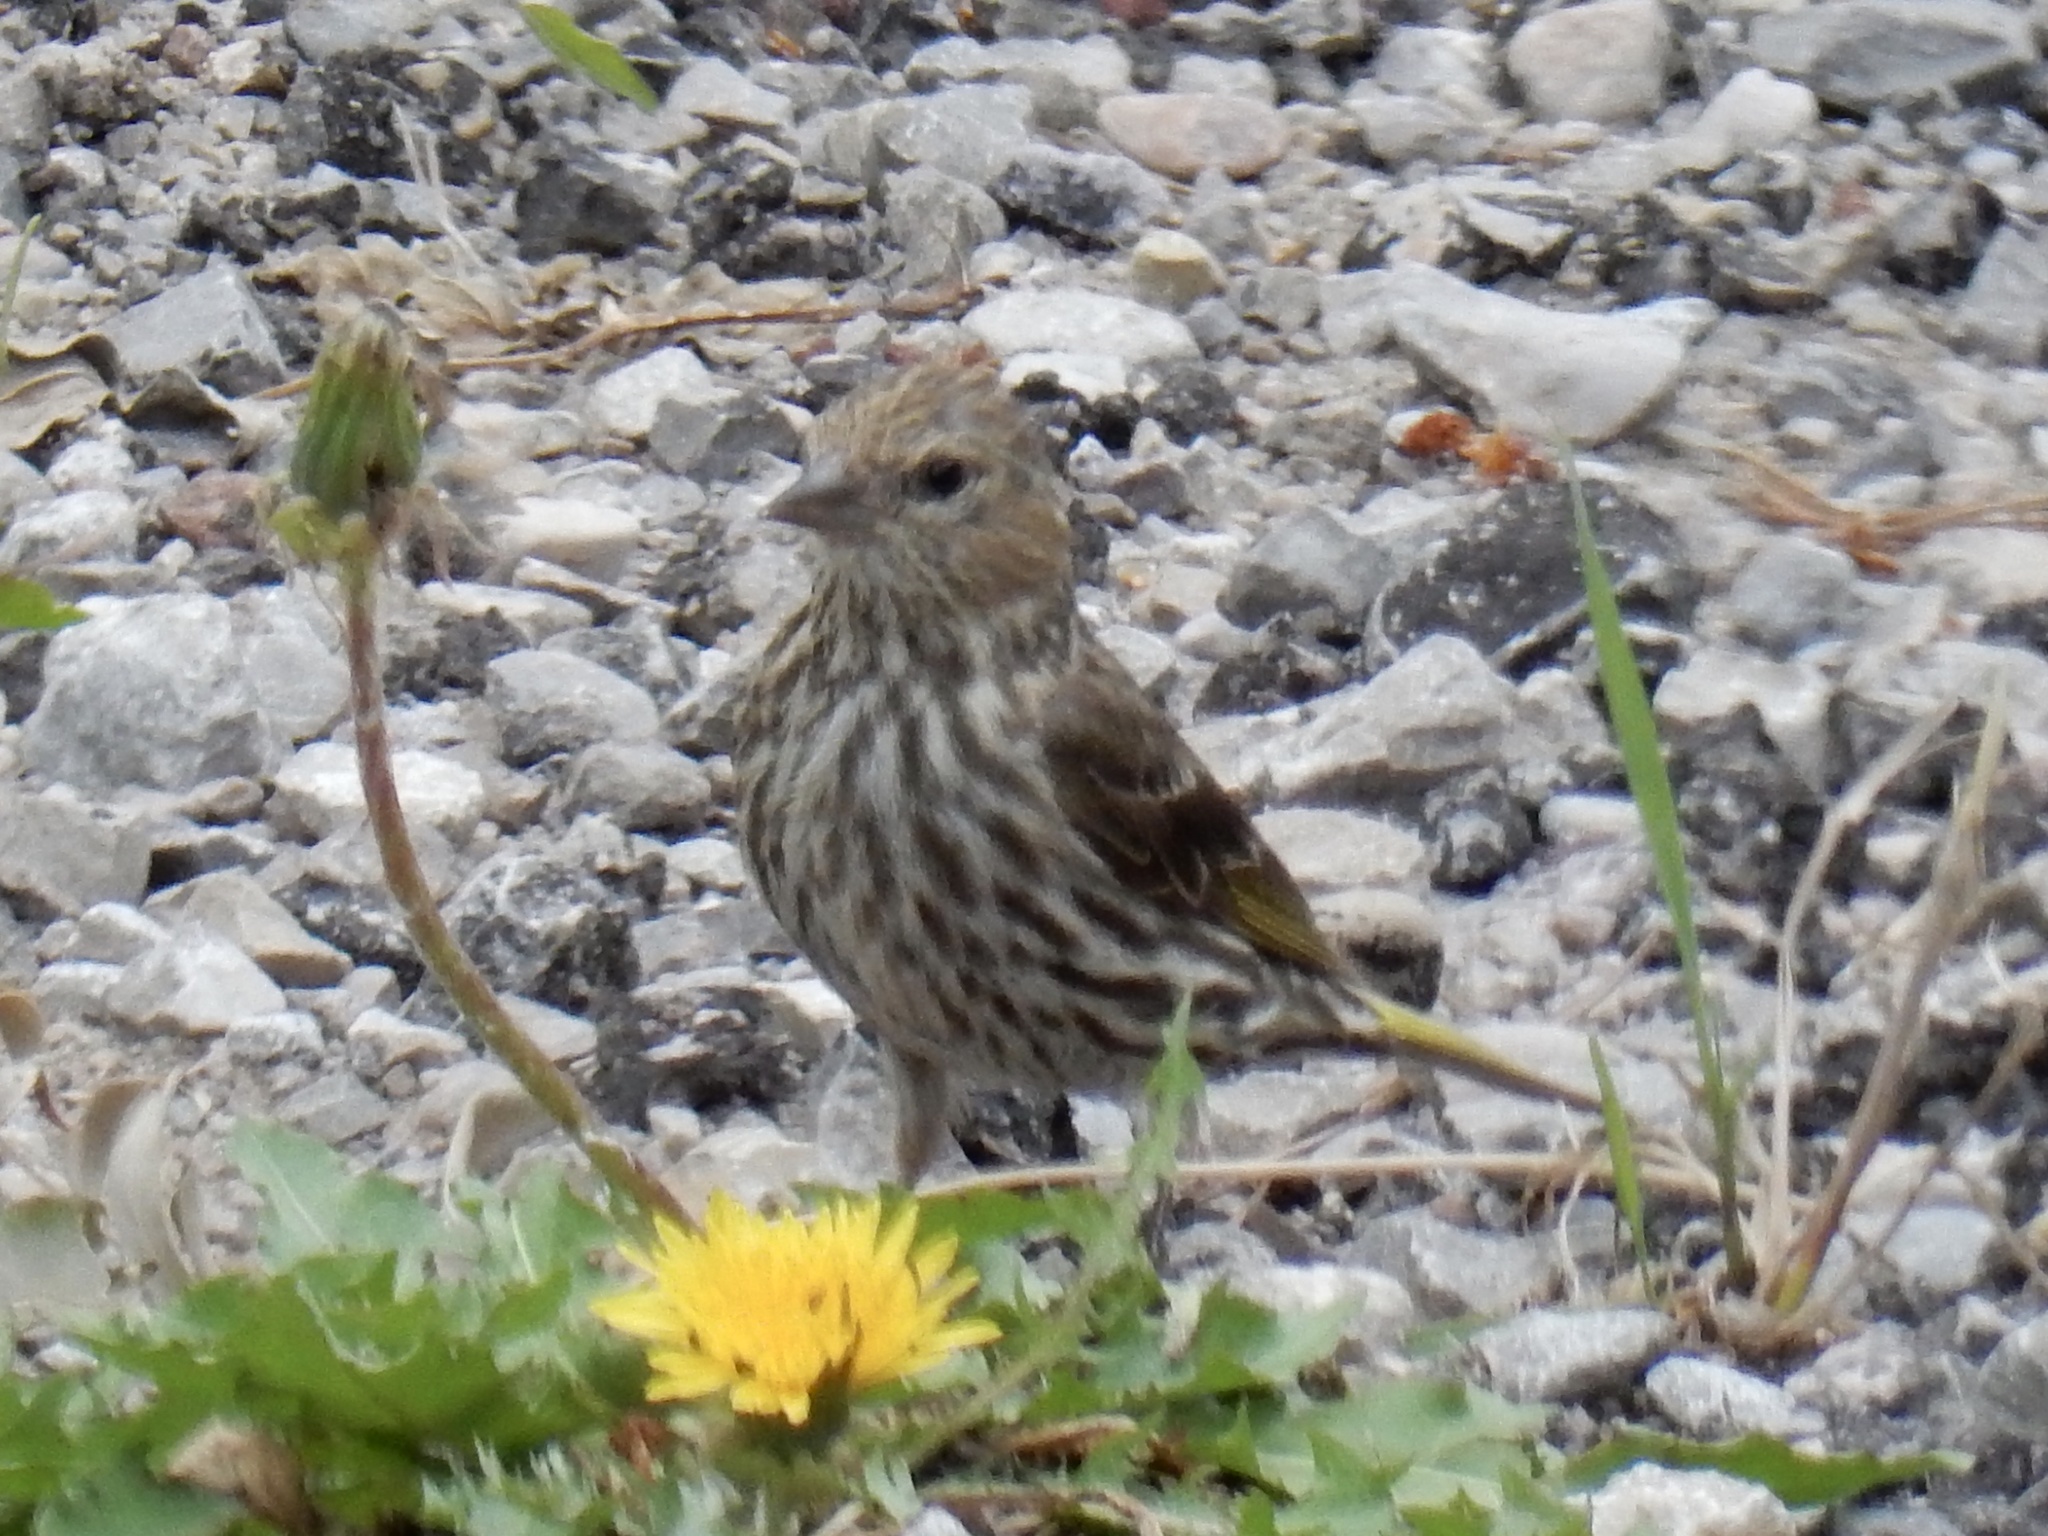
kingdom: Animalia
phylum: Chordata
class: Aves
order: Passeriformes
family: Fringillidae
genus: Spinus
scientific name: Spinus pinus
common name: Pine siskin
